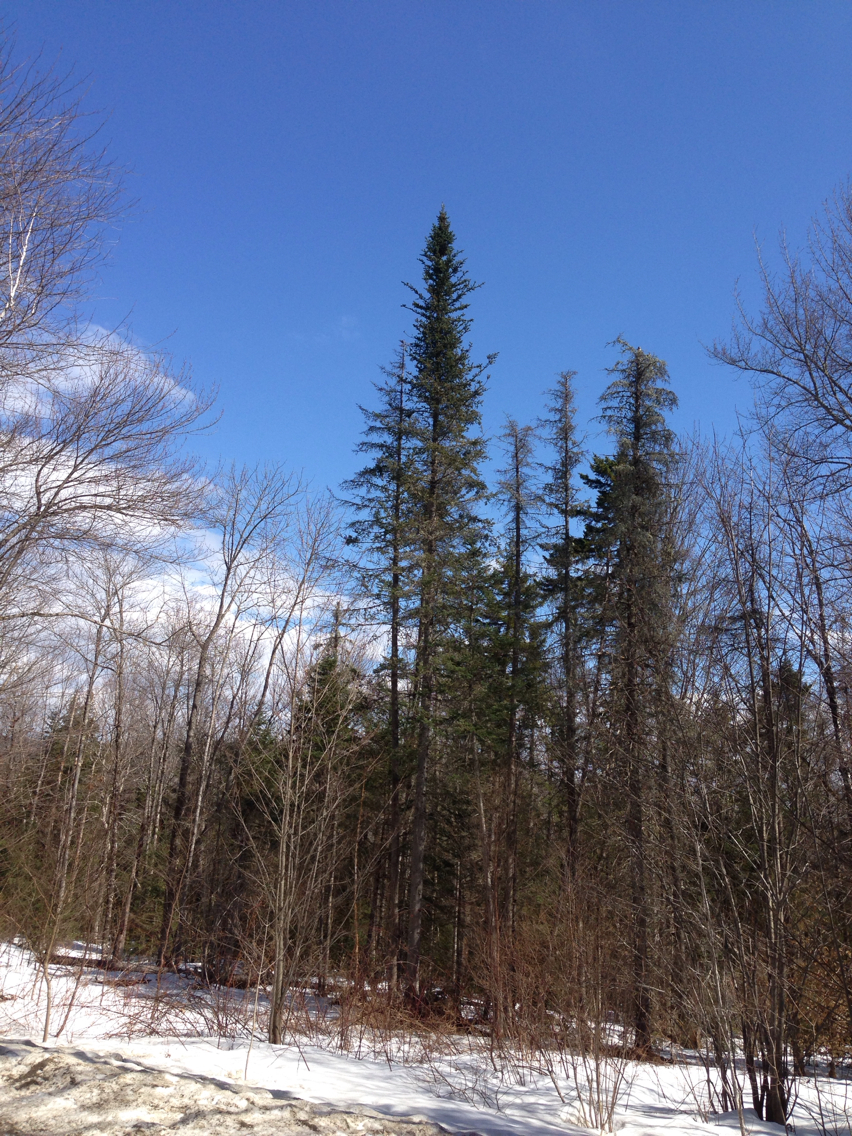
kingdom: Plantae
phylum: Tracheophyta
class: Pinopsida
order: Pinales
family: Pinaceae
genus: Abies
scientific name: Abies balsamea
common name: Balsam fir
